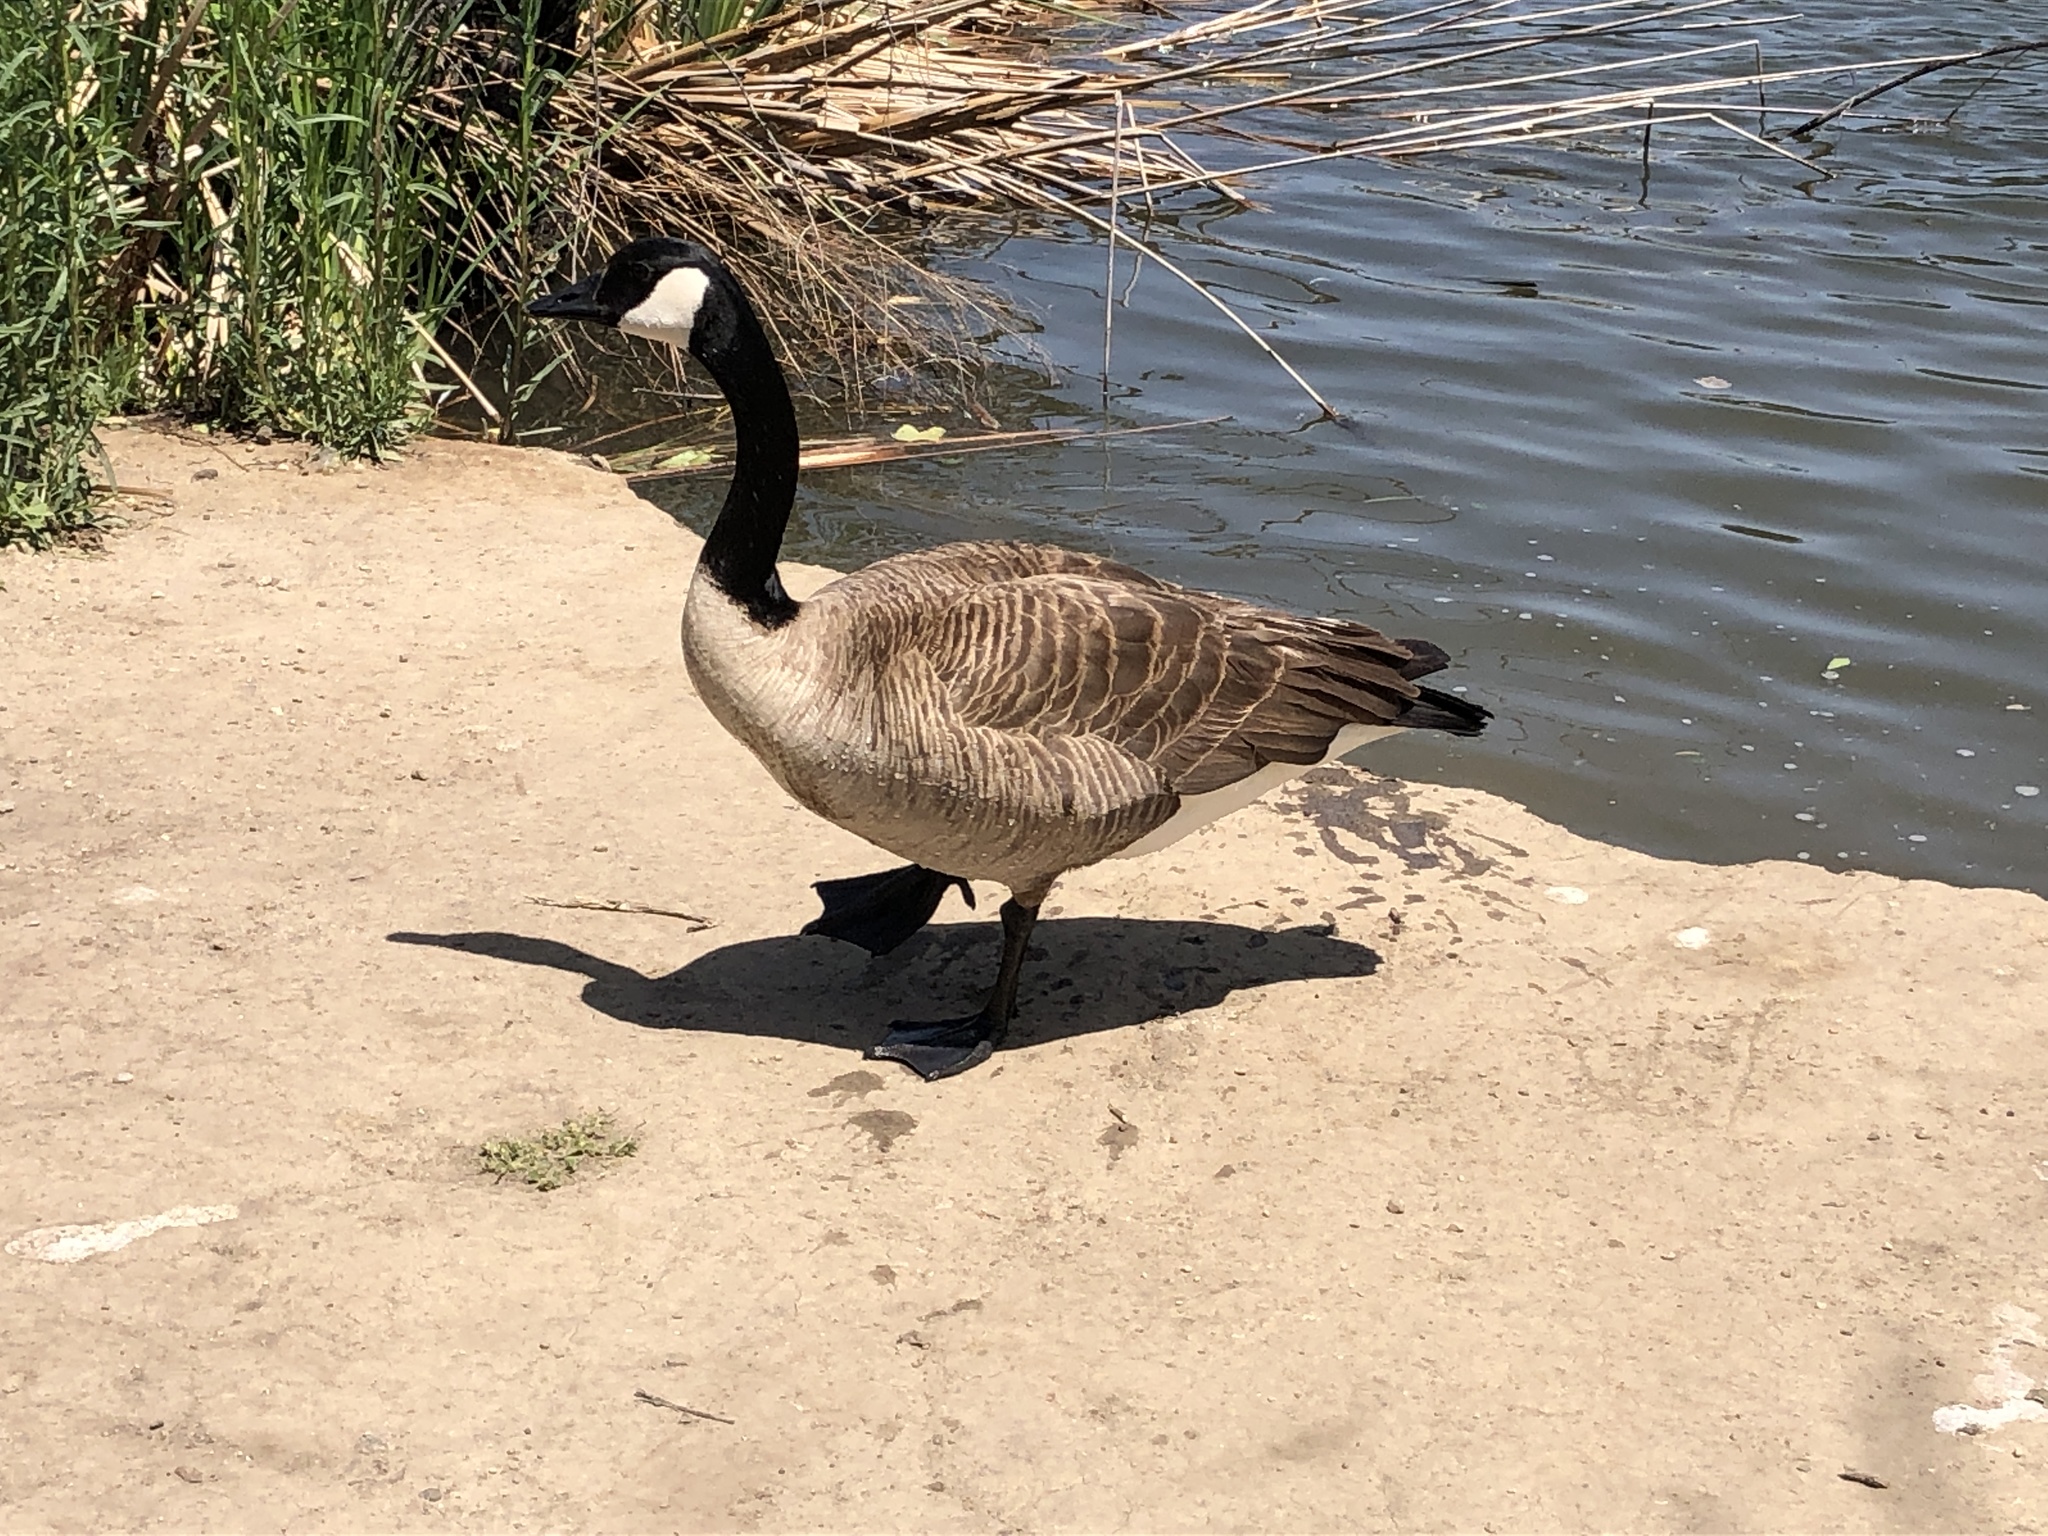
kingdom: Animalia
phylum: Chordata
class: Aves
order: Anseriformes
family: Anatidae
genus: Branta
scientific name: Branta canadensis
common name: Canada goose
